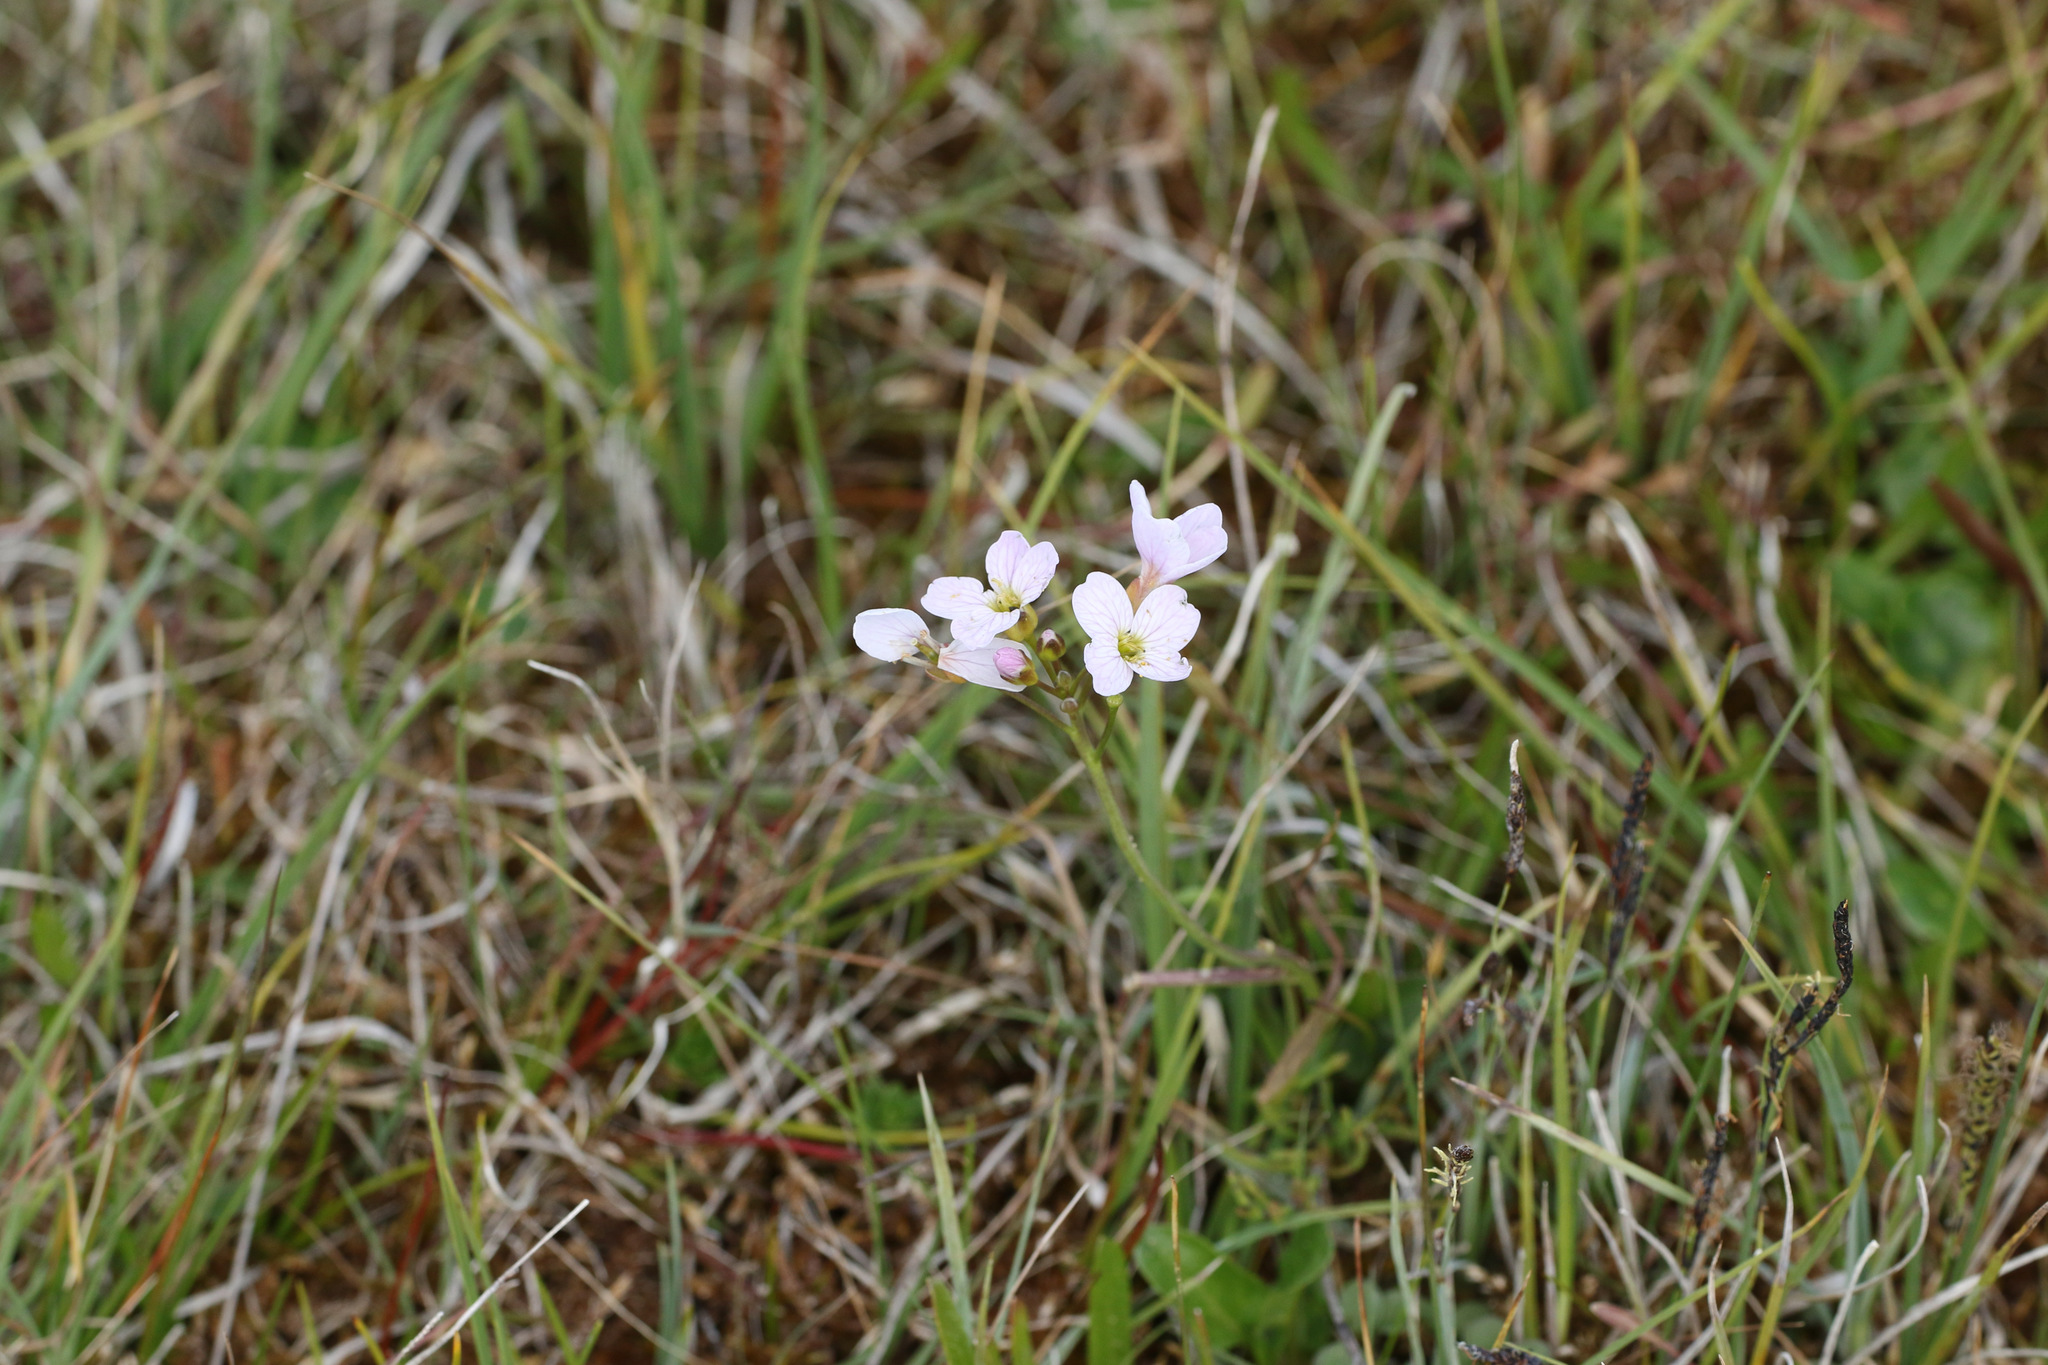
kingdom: Plantae
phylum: Tracheophyta
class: Magnoliopsida
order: Brassicales
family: Brassicaceae
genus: Cardamine
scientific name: Cardamine pratensis
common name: Cuckoo flower
